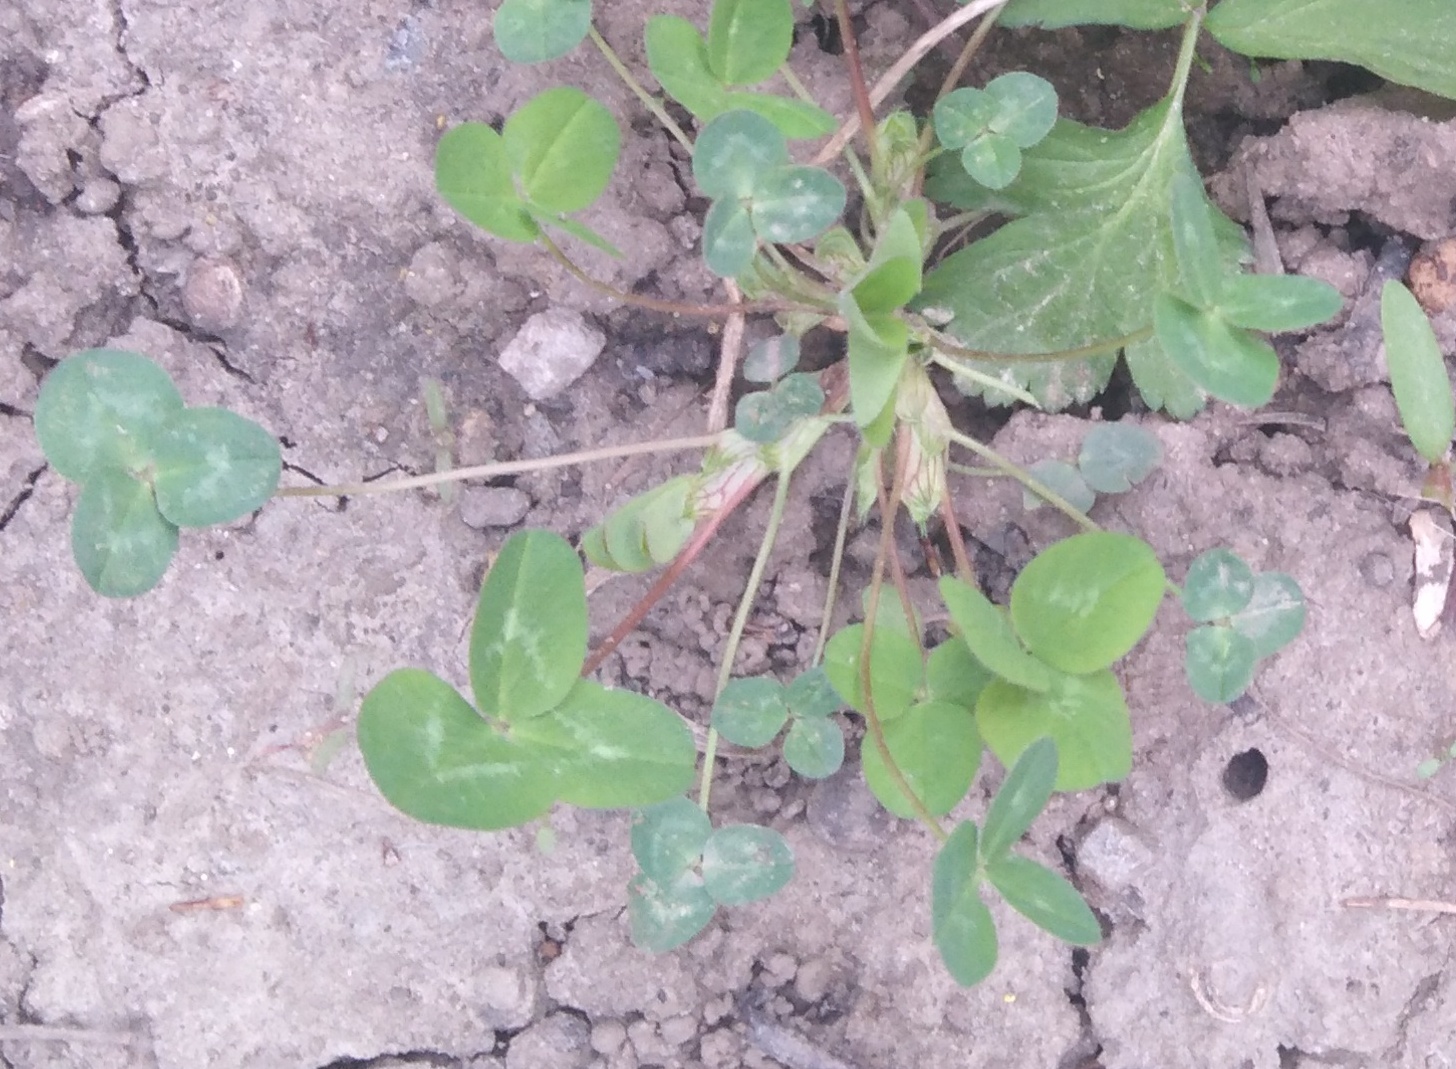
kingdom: Plantae
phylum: Tracheophyta
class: Magnoliopsida
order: Fabales
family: Fabaceae
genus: Trifolium
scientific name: Trifolium pratense
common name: Red clover
